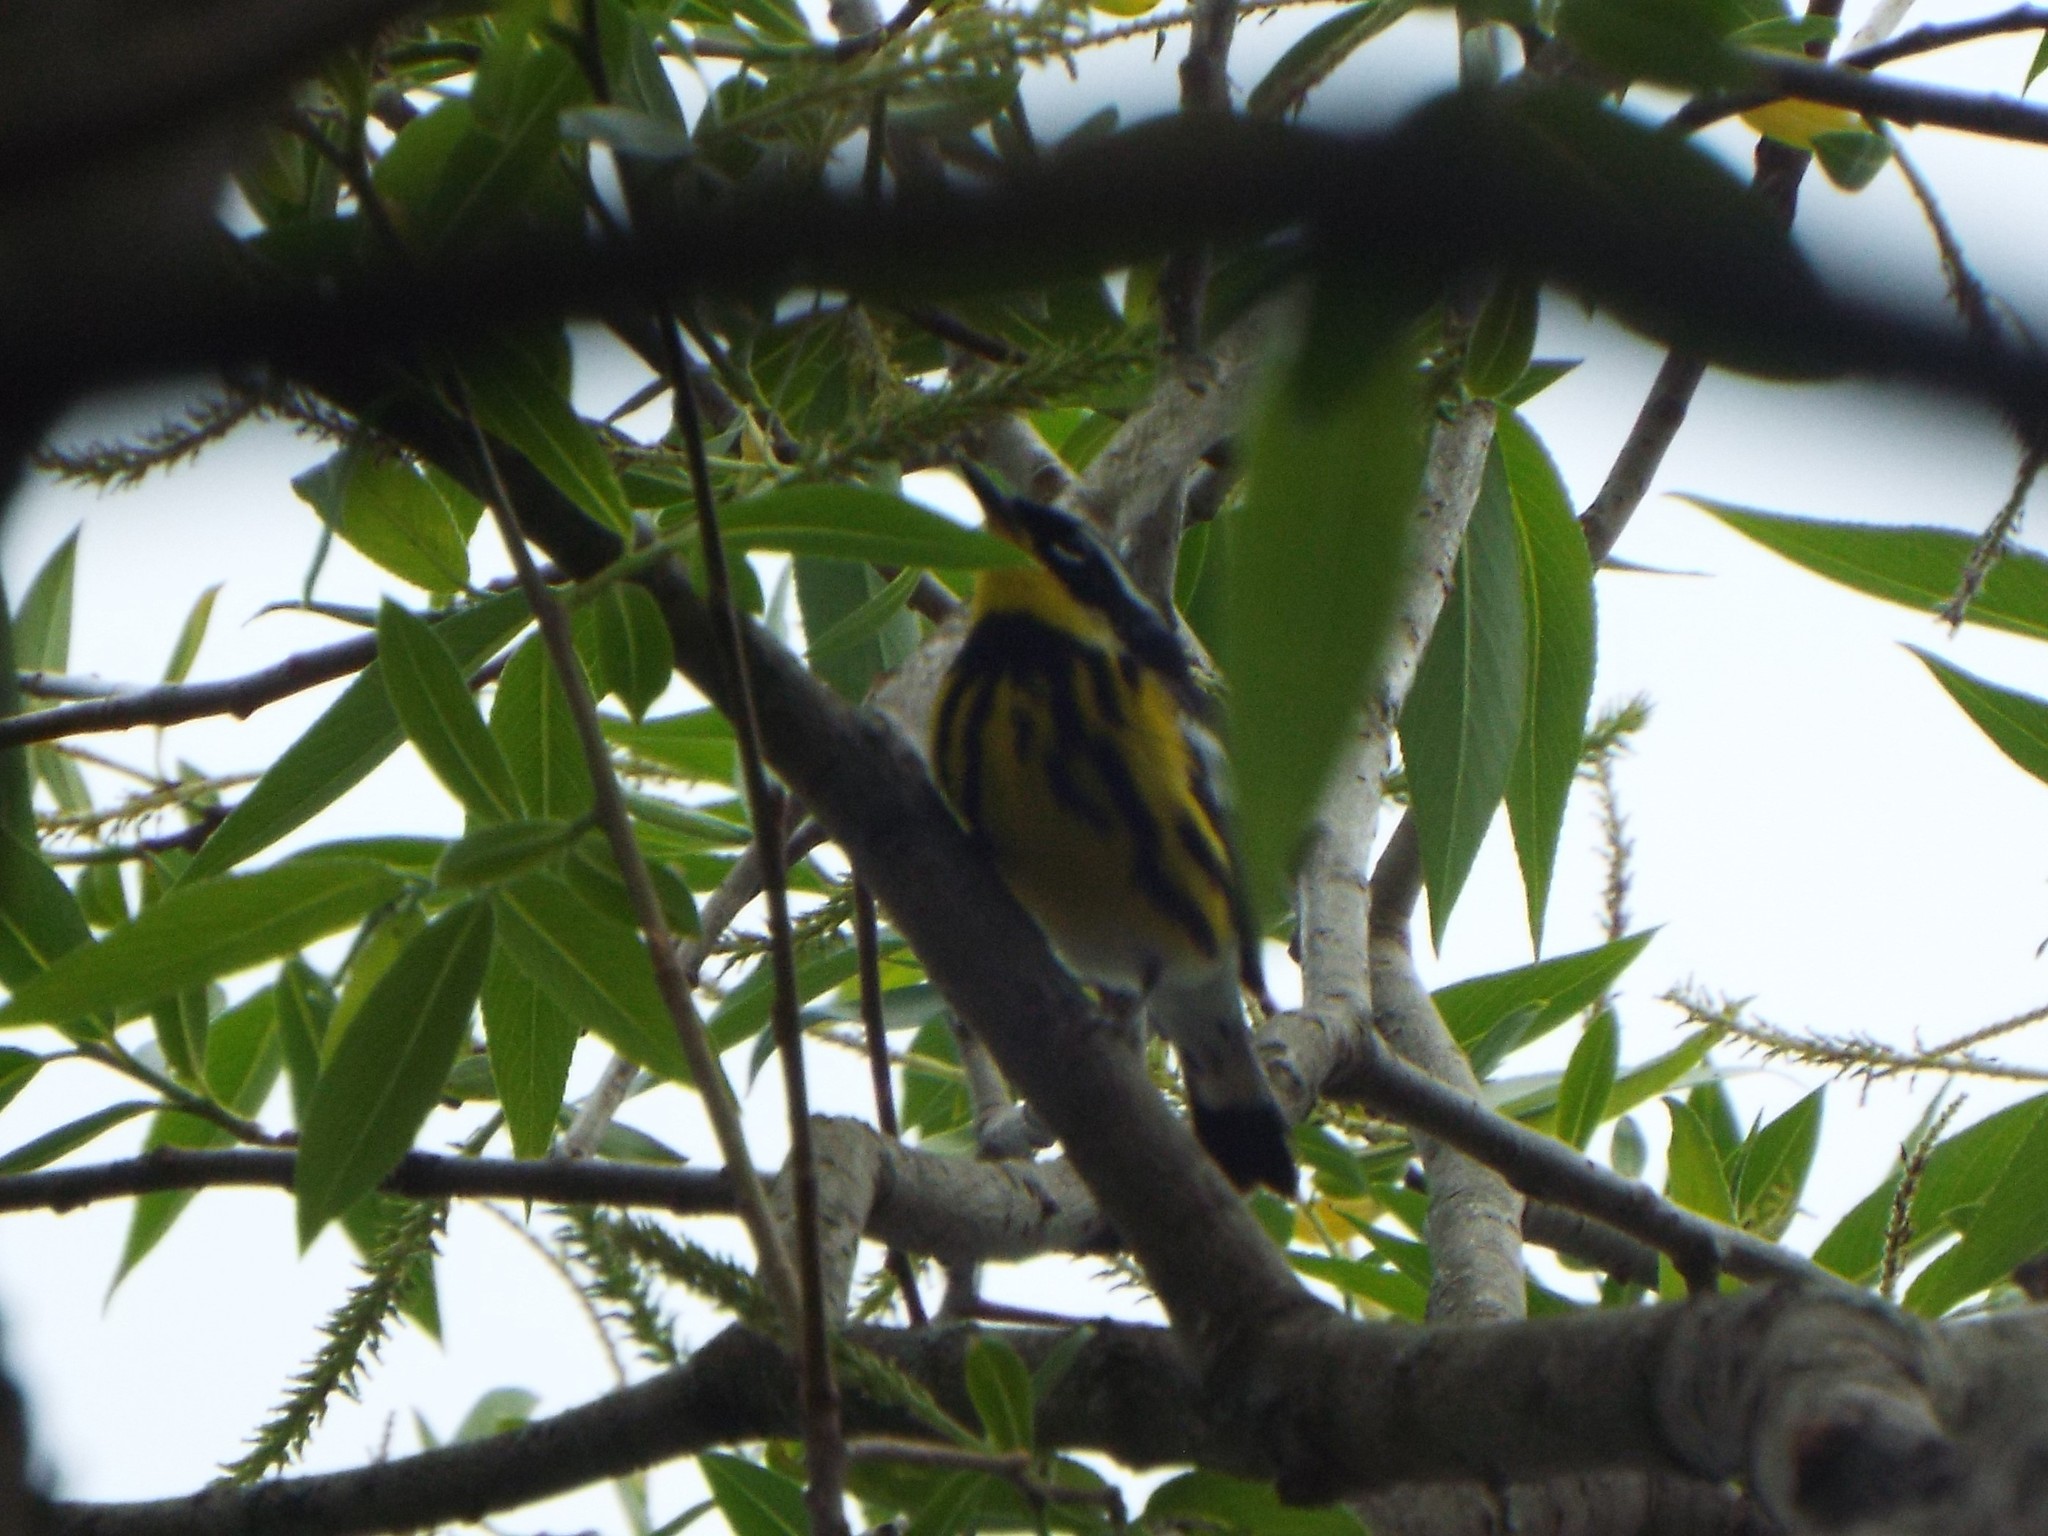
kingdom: Animalia
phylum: Chordata
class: Aves
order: Passeriformes
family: Parulidae
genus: Setophaga
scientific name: Setophaga magnolia
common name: Magnolia warbler
